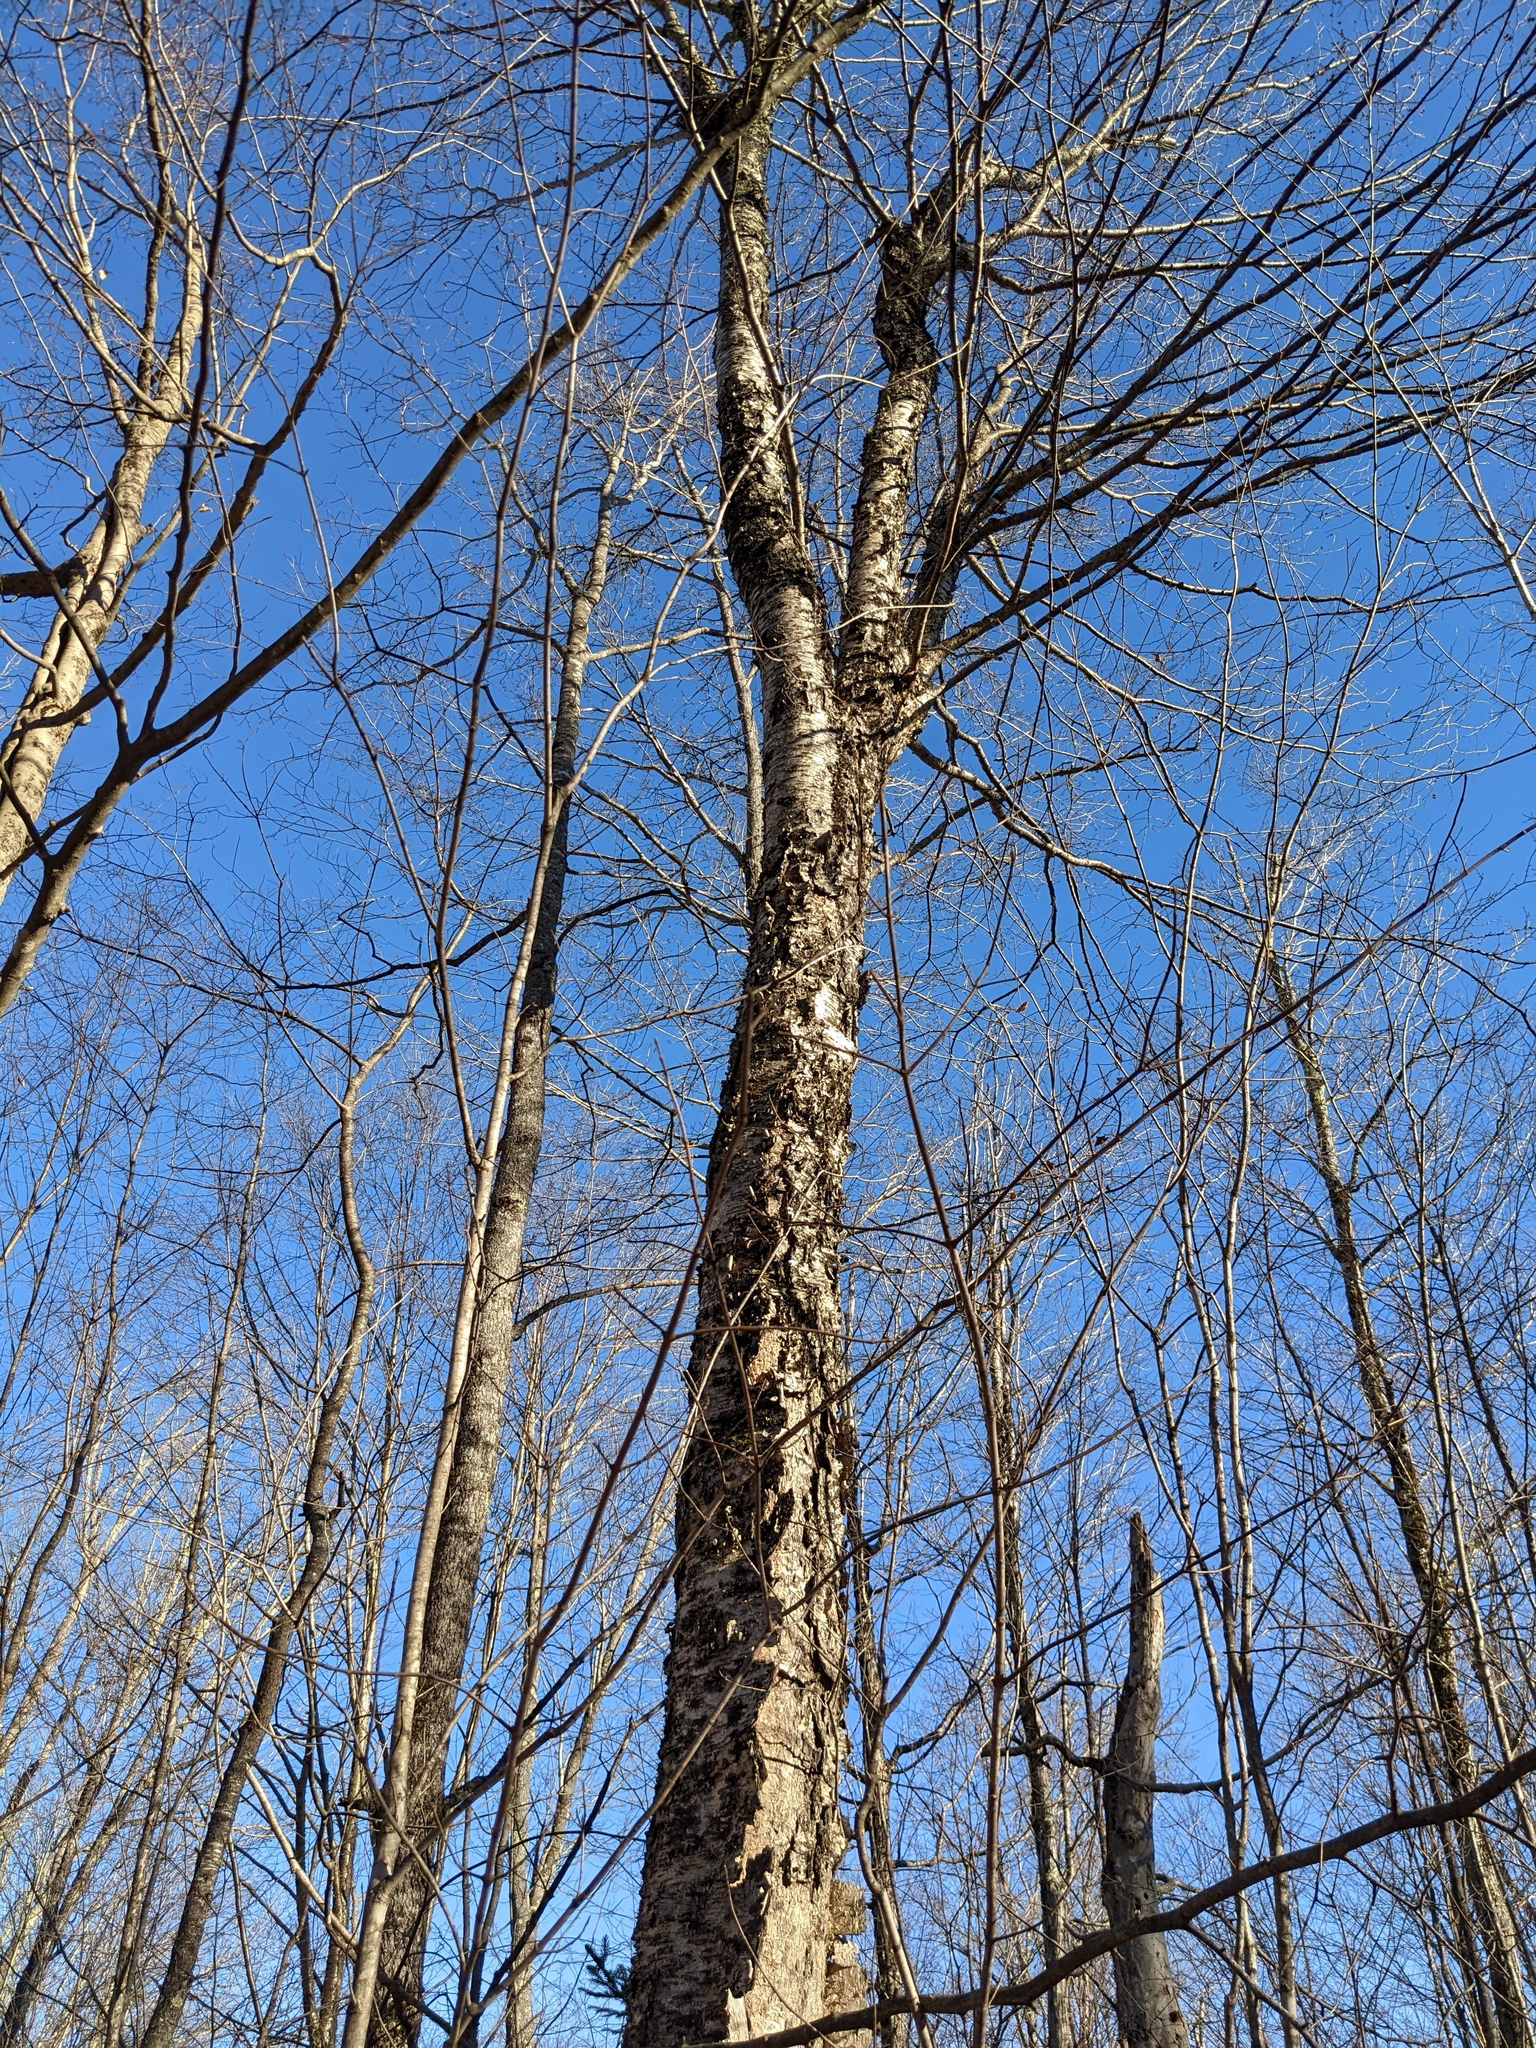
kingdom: Plantae
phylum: Tracheophyta
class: Magnoliopsida
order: Fagales
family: Betulaceae
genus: Betula
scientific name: Betula alleghaniensis
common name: Yellow birch
